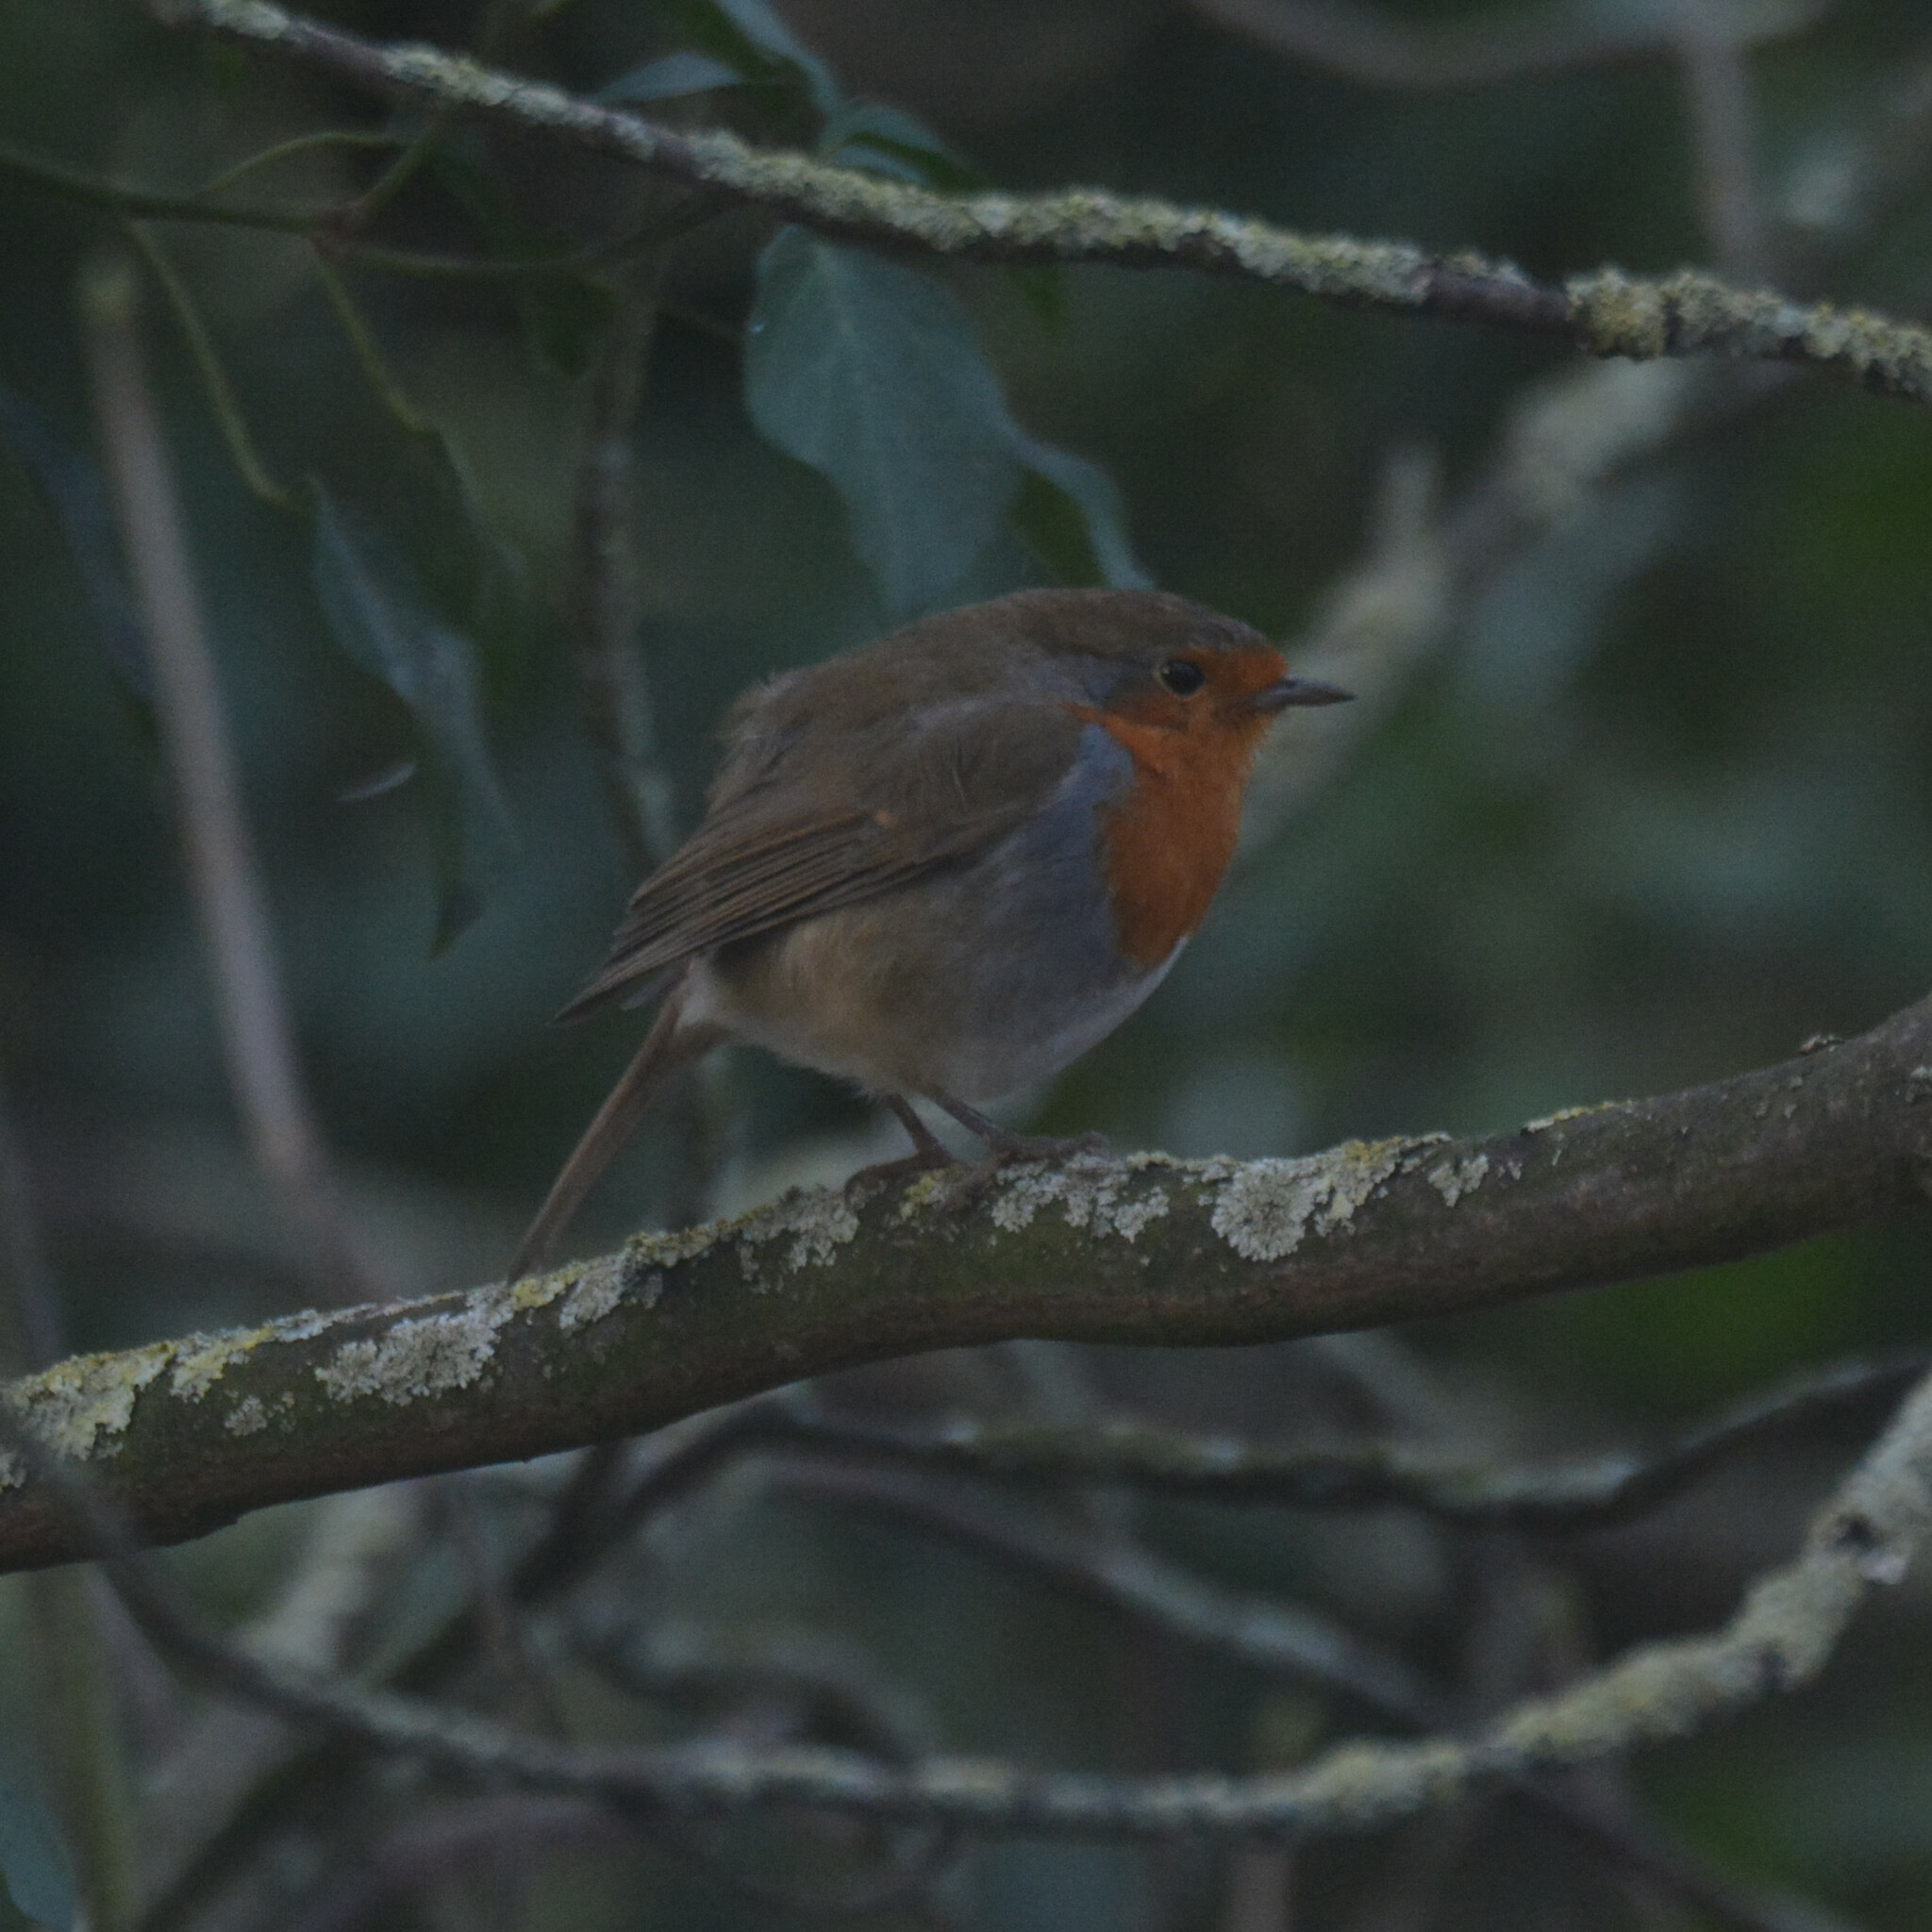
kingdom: Animalia
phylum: Chordata
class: Aves
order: Passeriformes
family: Muscicapidae
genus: Erithacus
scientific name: Erithacus rubecula
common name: European robin
